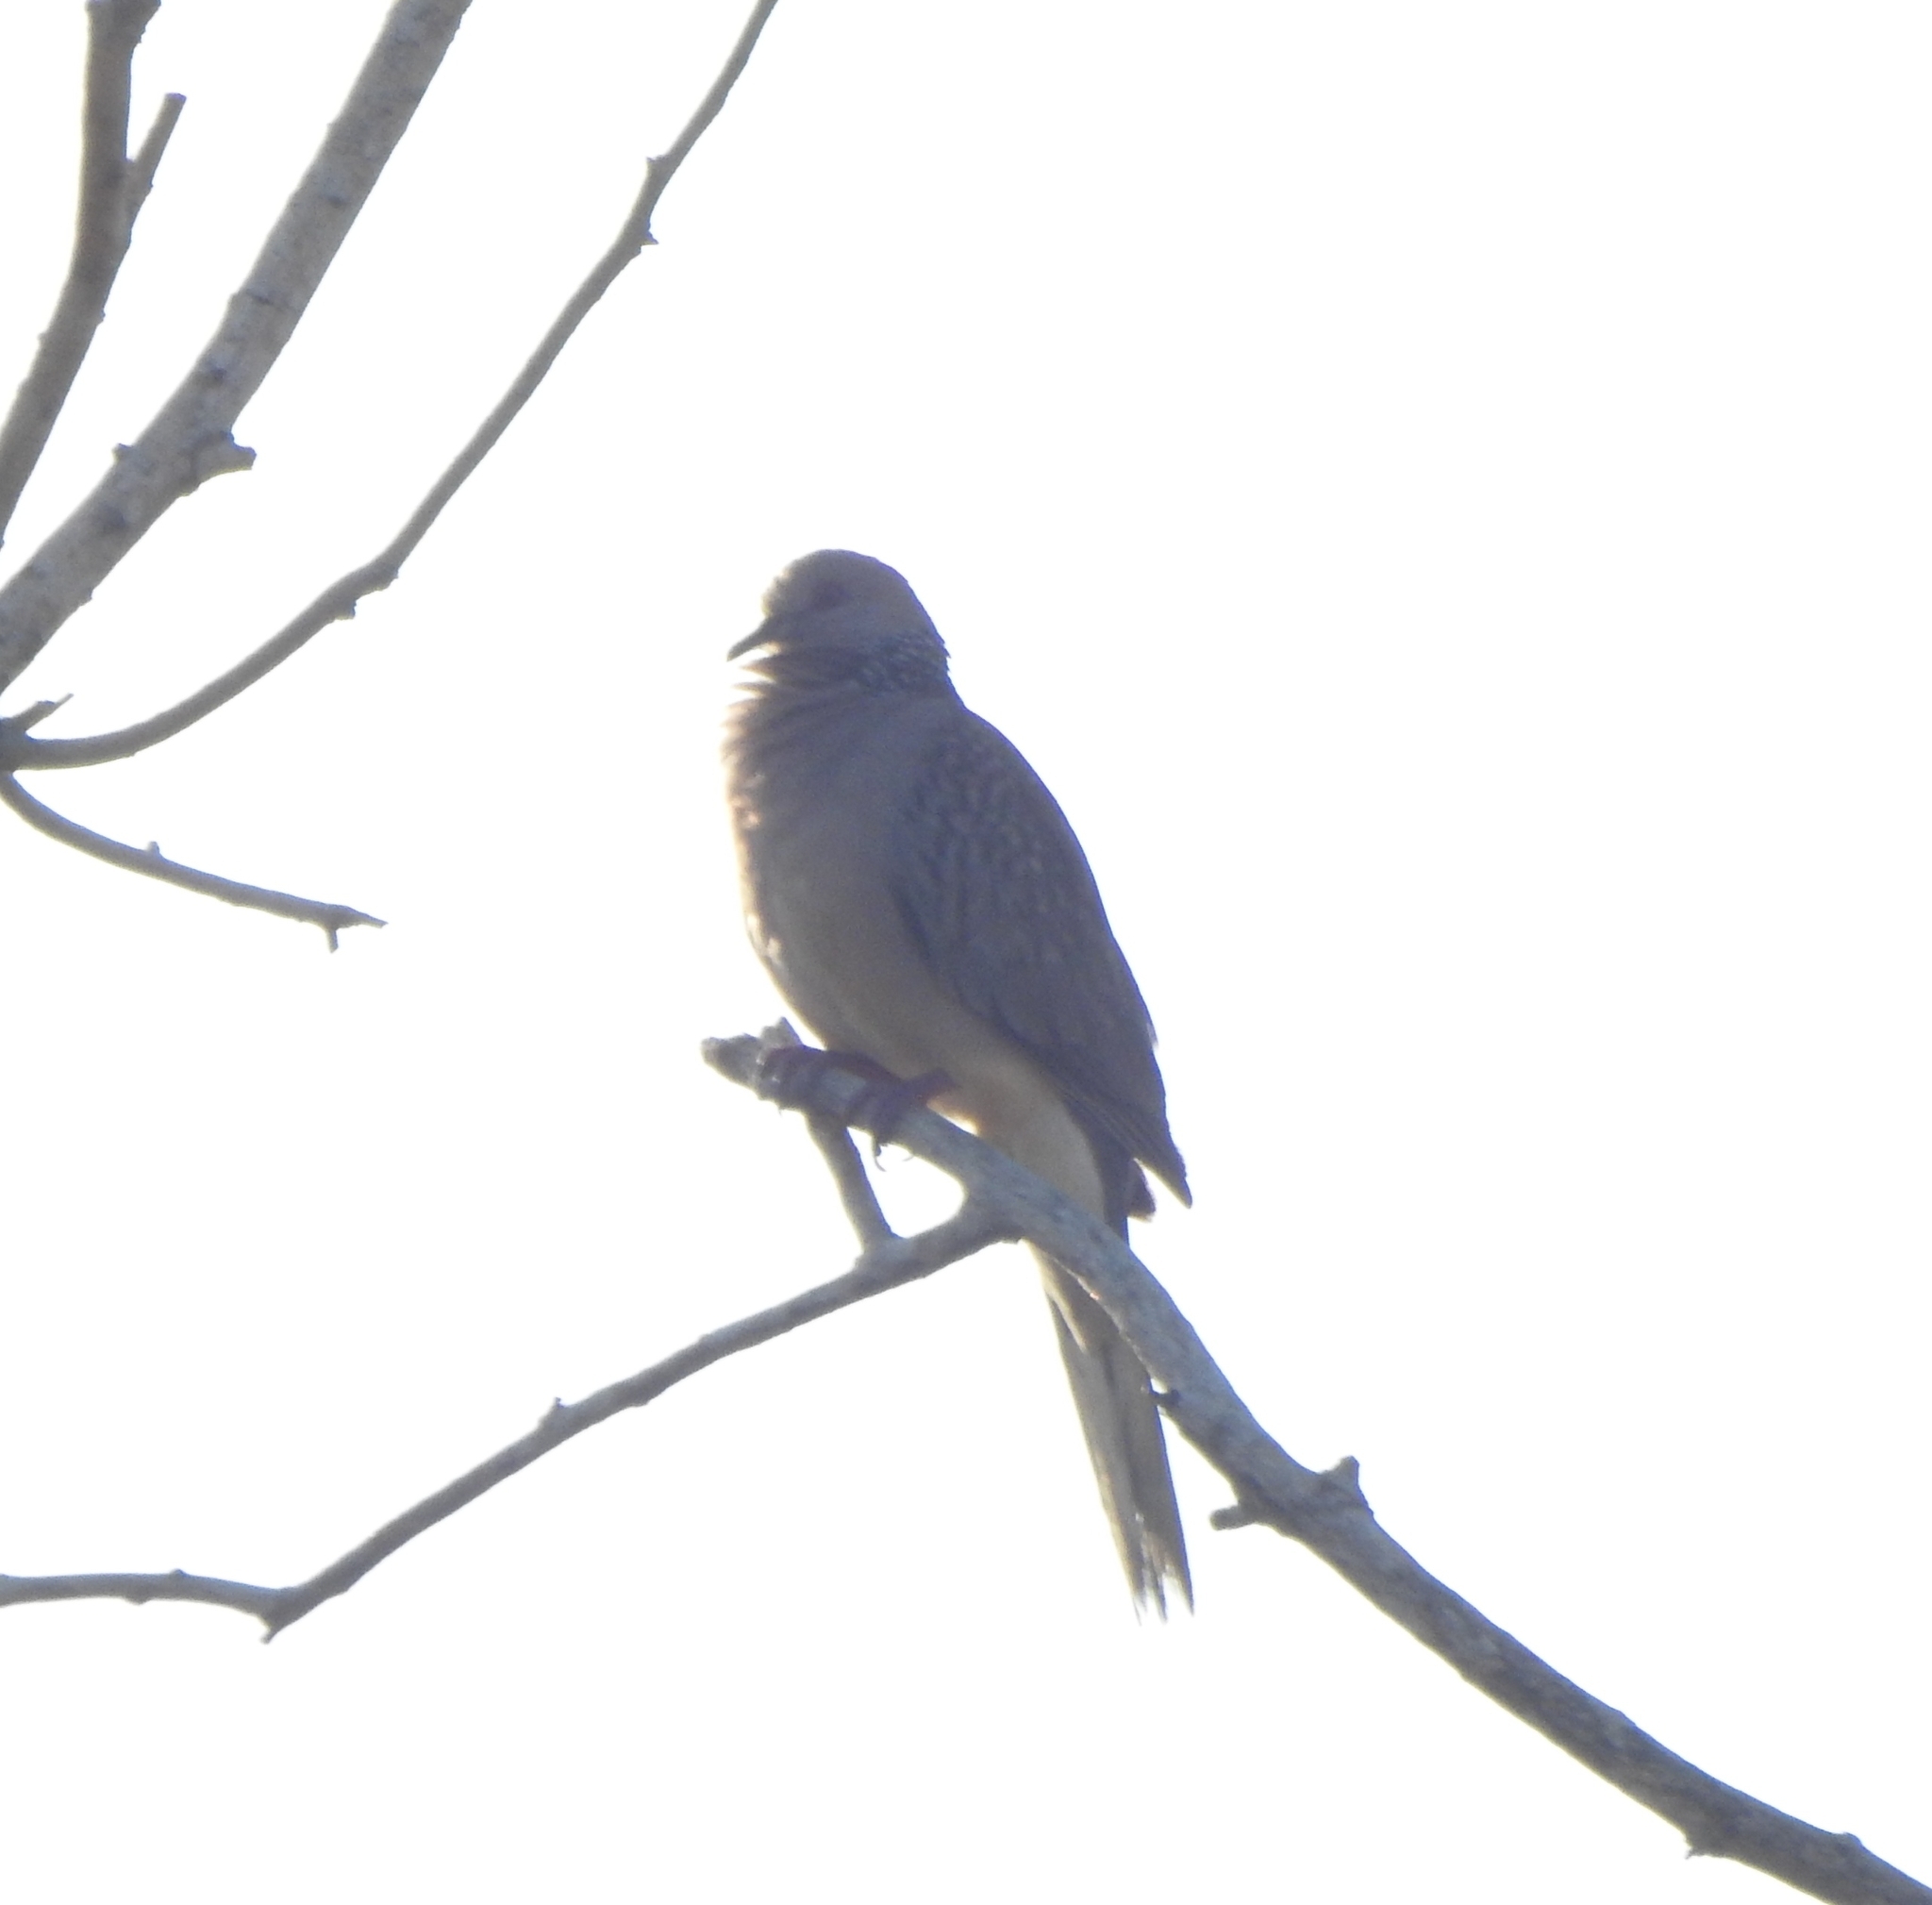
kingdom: Animalia
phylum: Chordata
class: Aves
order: Columbiformes
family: Columbidae
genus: Spilopelia
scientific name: Spilopelia chinensis
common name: Spotted dove
